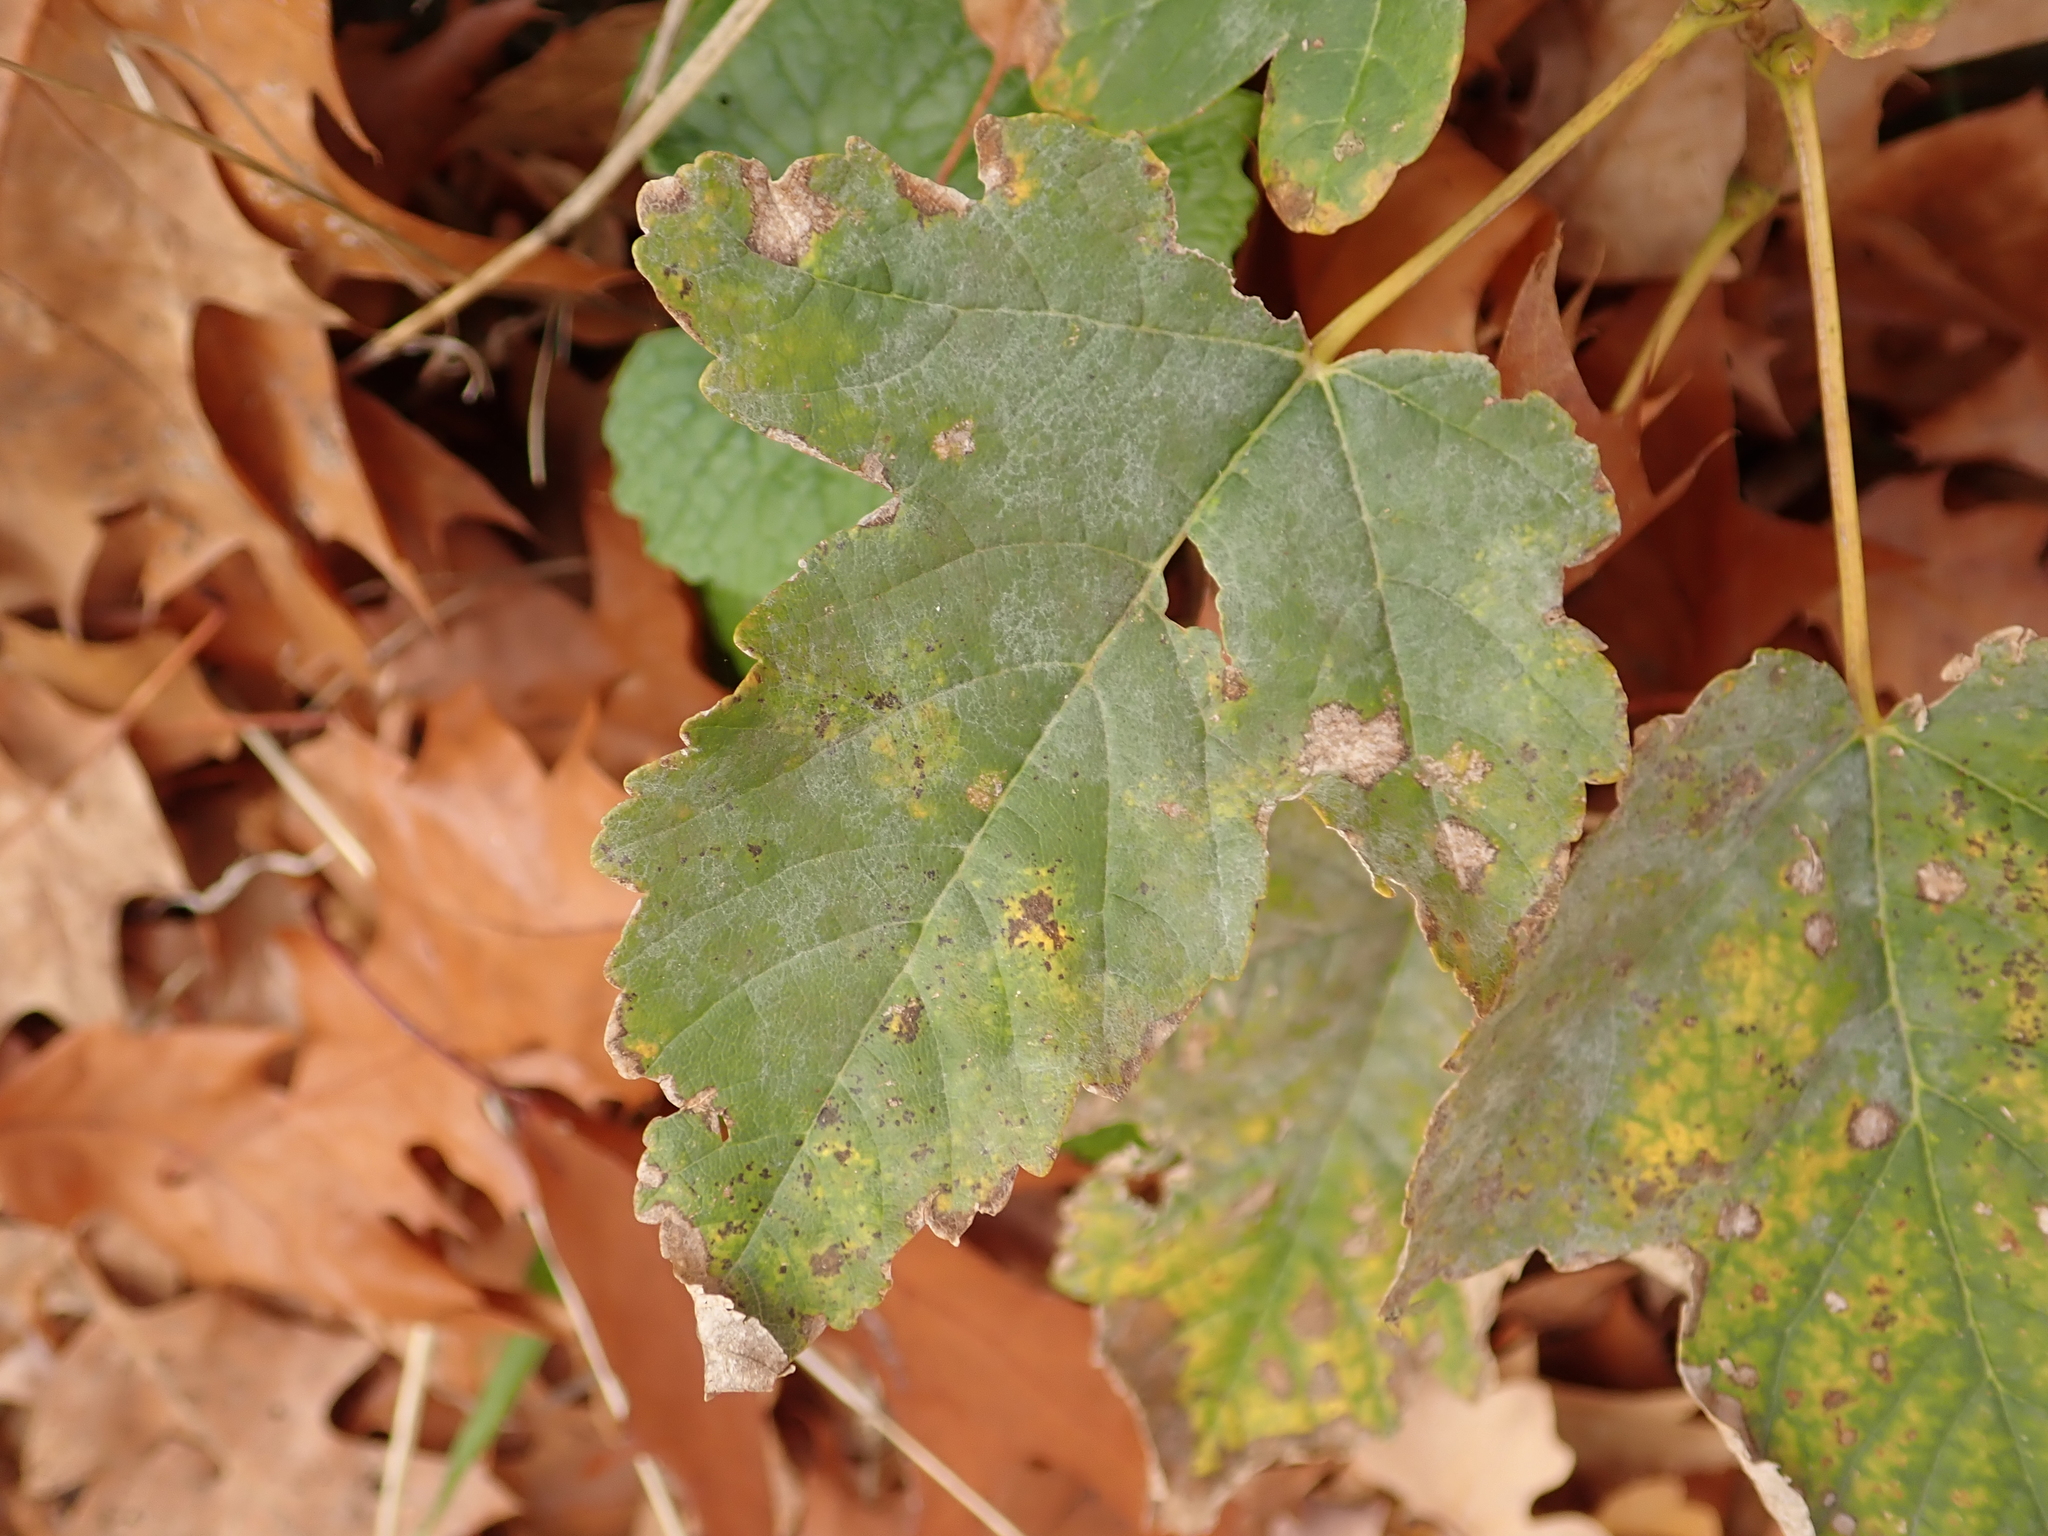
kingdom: Plantae
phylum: Tracheophyta
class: Magnoliopsida
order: Sapindales
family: Sapindaceae
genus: Acer
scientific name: Acer pseudoplatanus
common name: Sycamore
